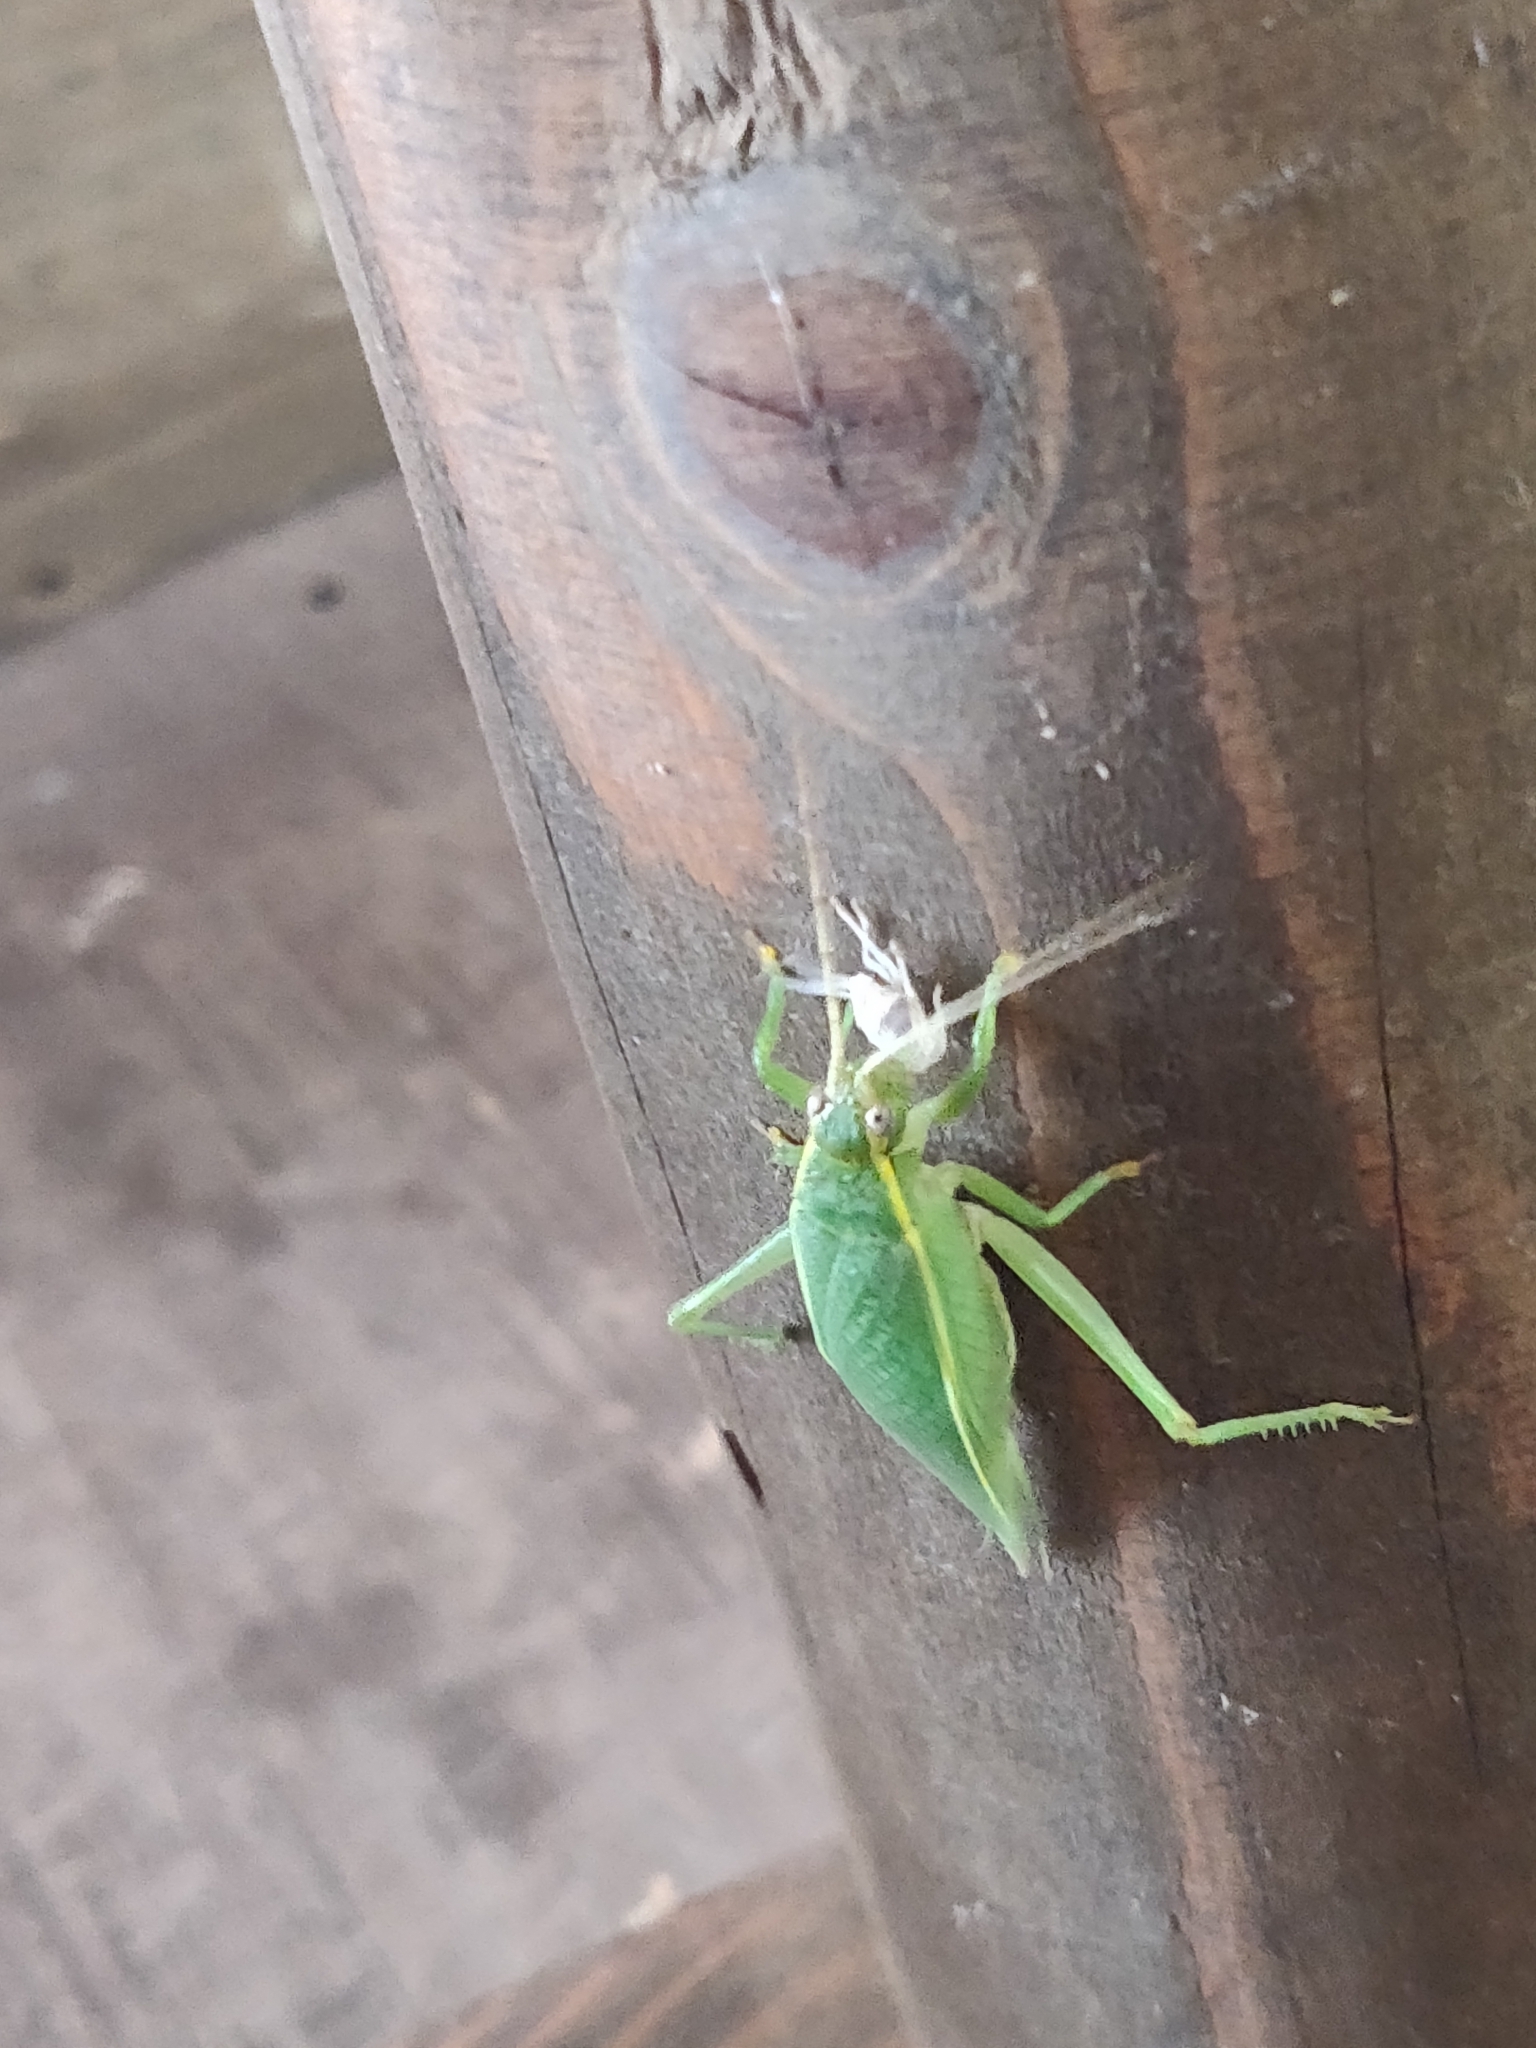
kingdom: Animalia
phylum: Arthropoda
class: Insecta
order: Orthoptera
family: Gryllidae
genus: Truljalia
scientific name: Truljalia hibinonis
